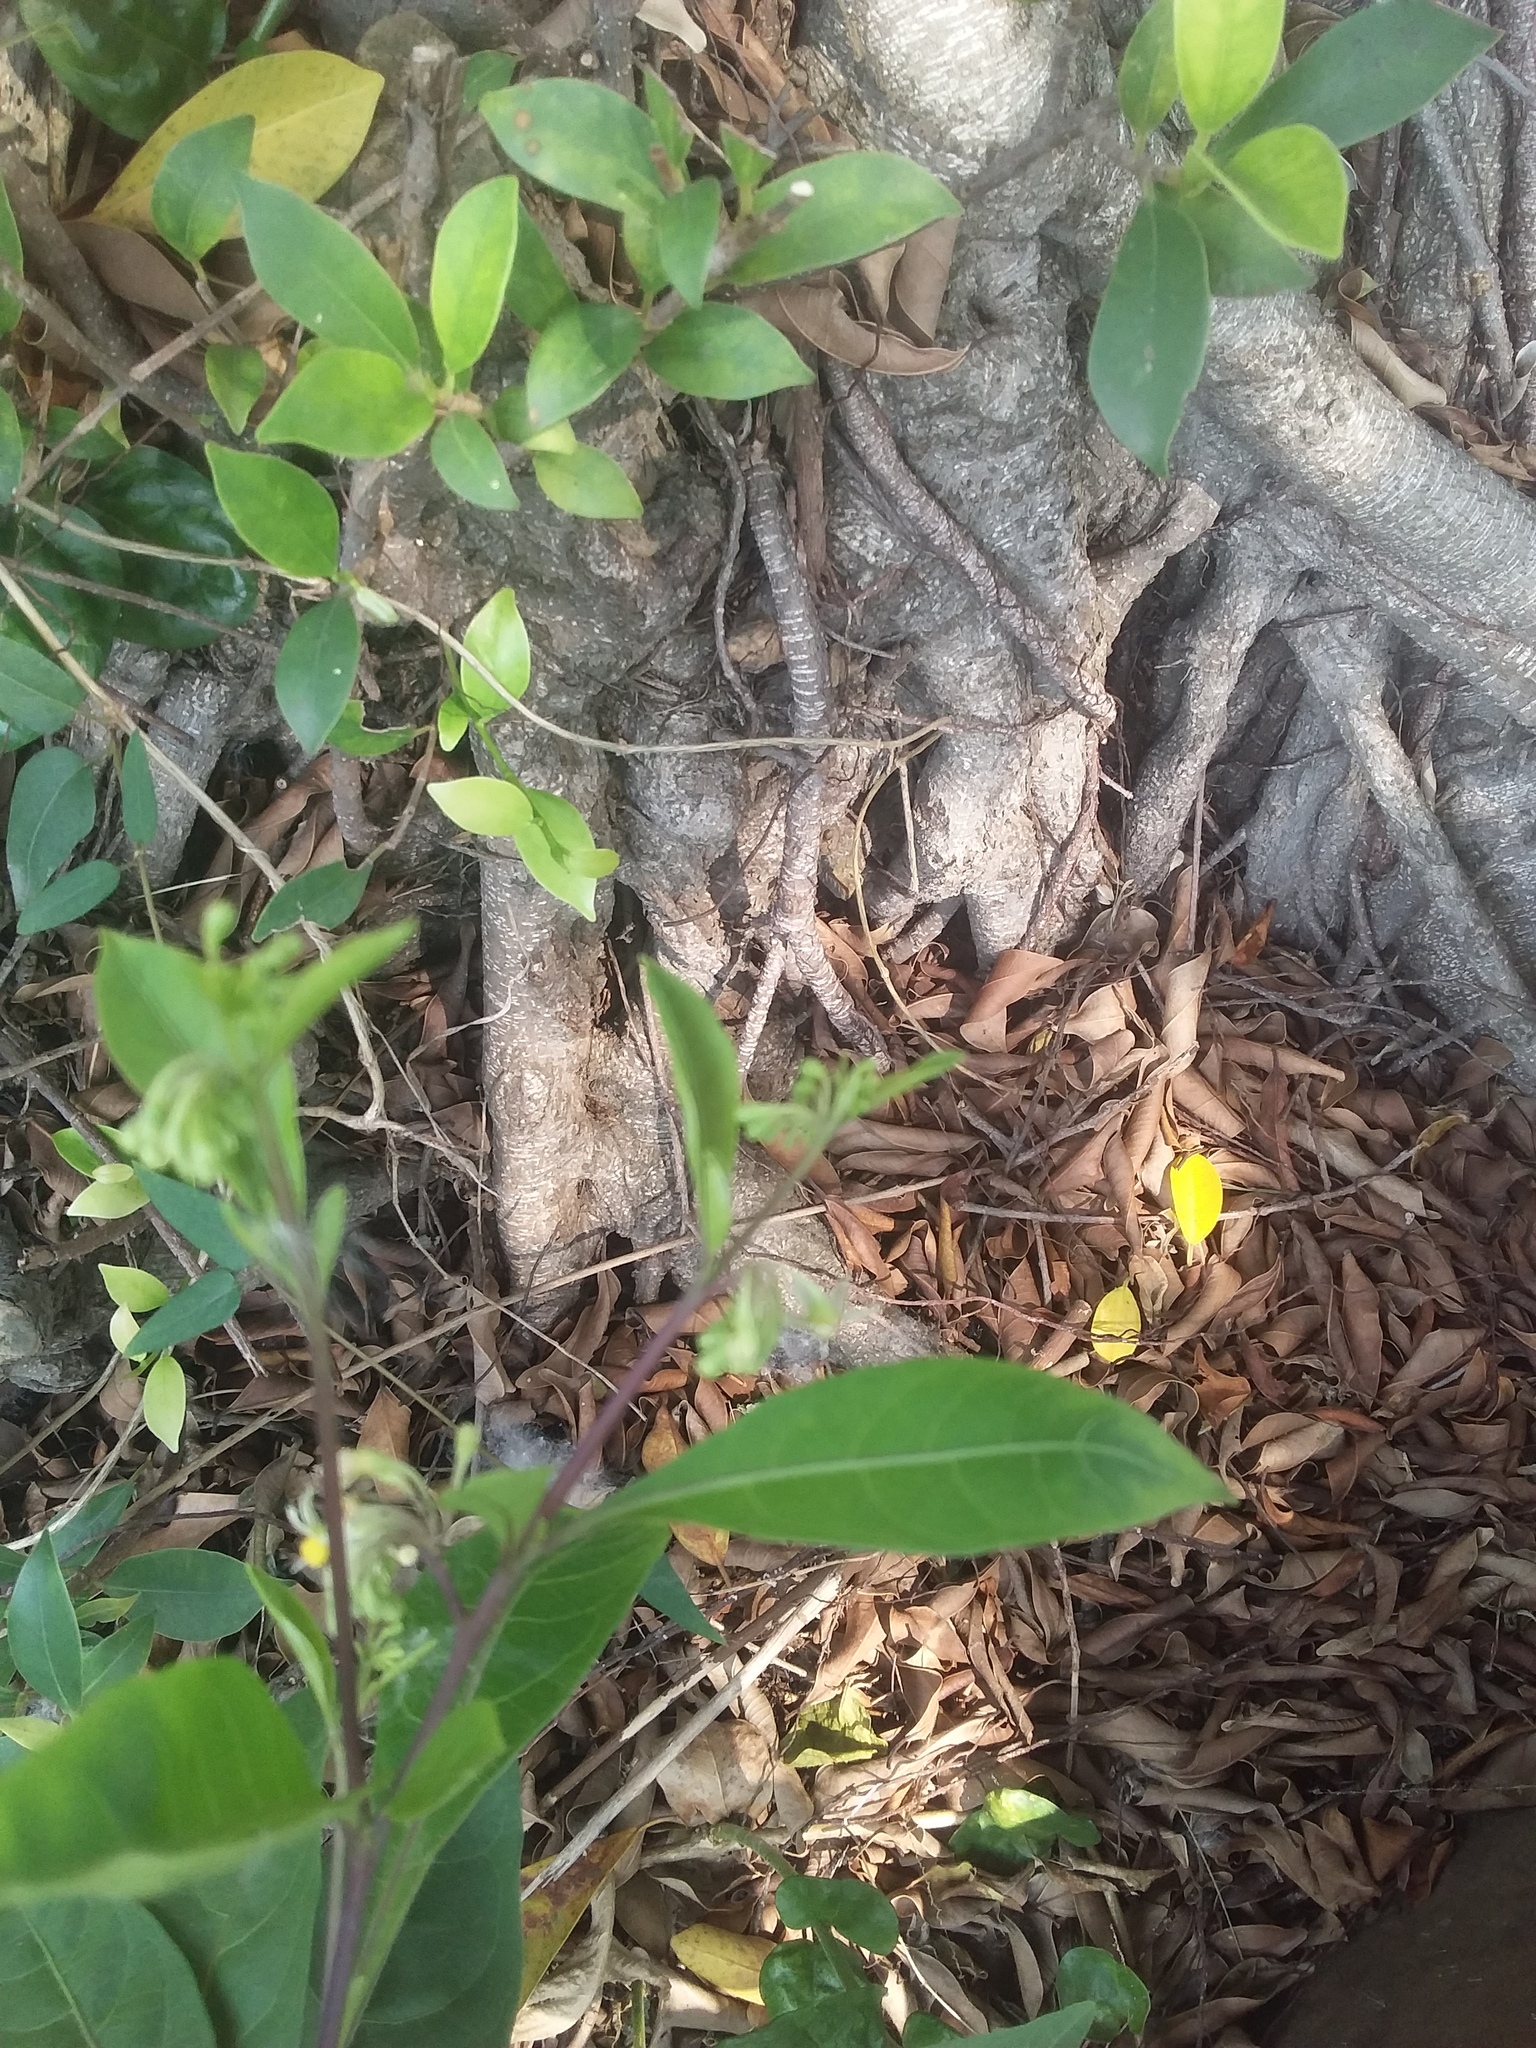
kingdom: Plantae
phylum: Tracheophyta
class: Magnoliopsida
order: Solanales
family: Solanaceae
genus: Solanum
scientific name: Solanum diphyllum
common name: Twoleaf nightshade
